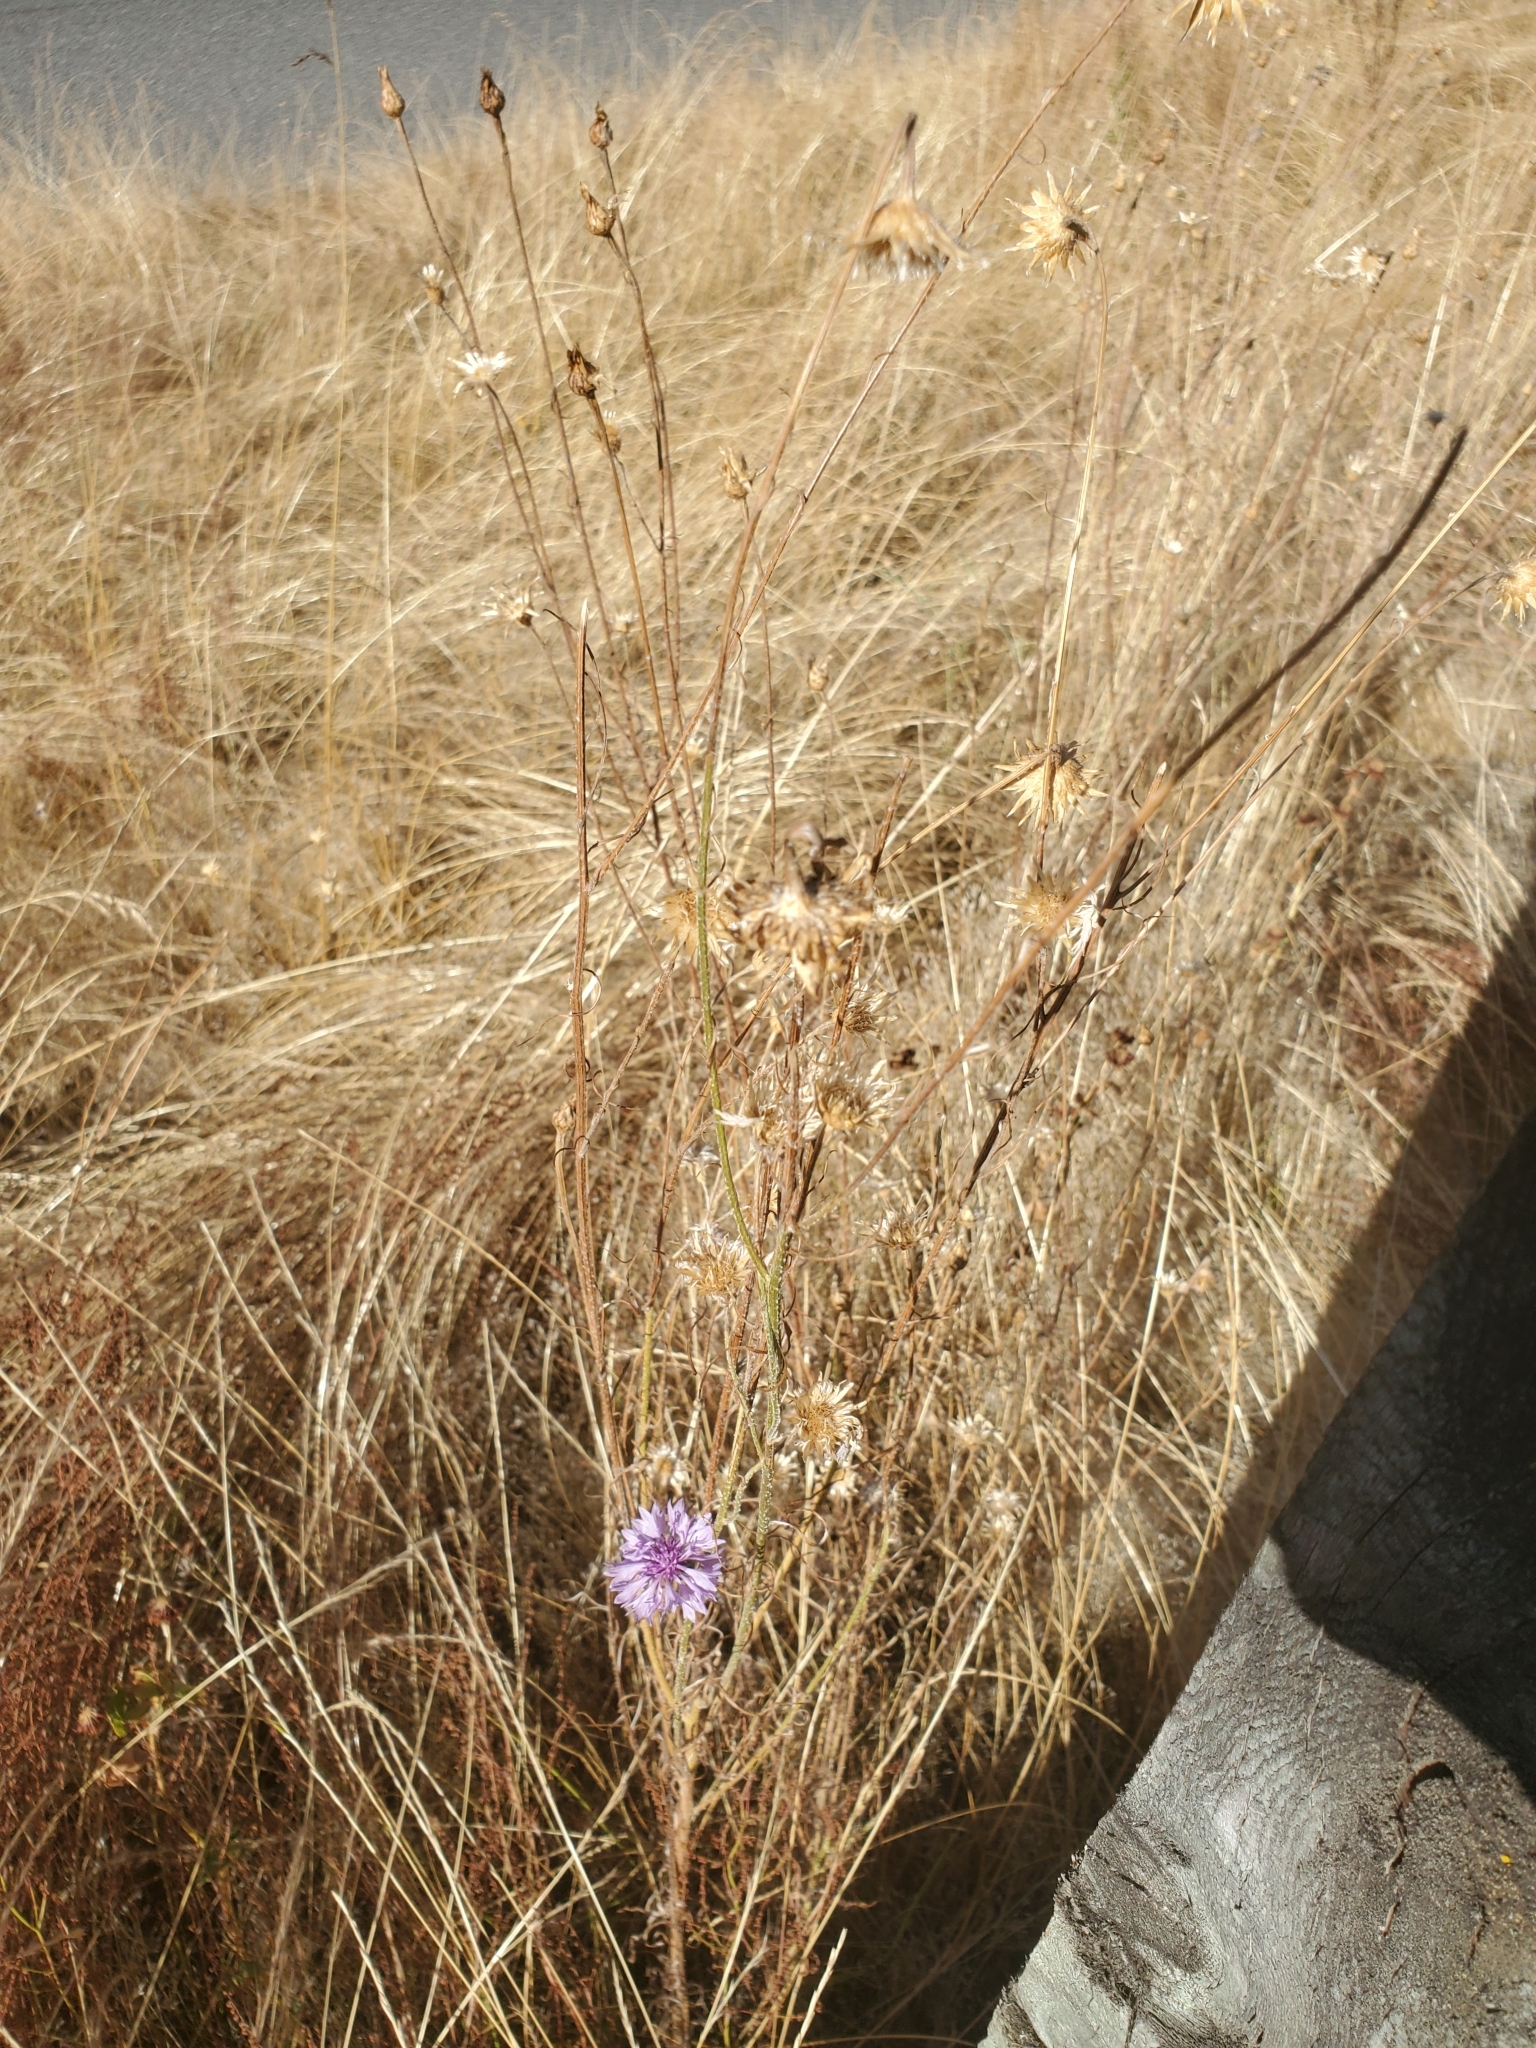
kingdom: Plantae
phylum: Tracheophyta
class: Magnoliopsida
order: Asterales
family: Asteraceae
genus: Centaurea
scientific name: Centaurea cyanus
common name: Cornflower
